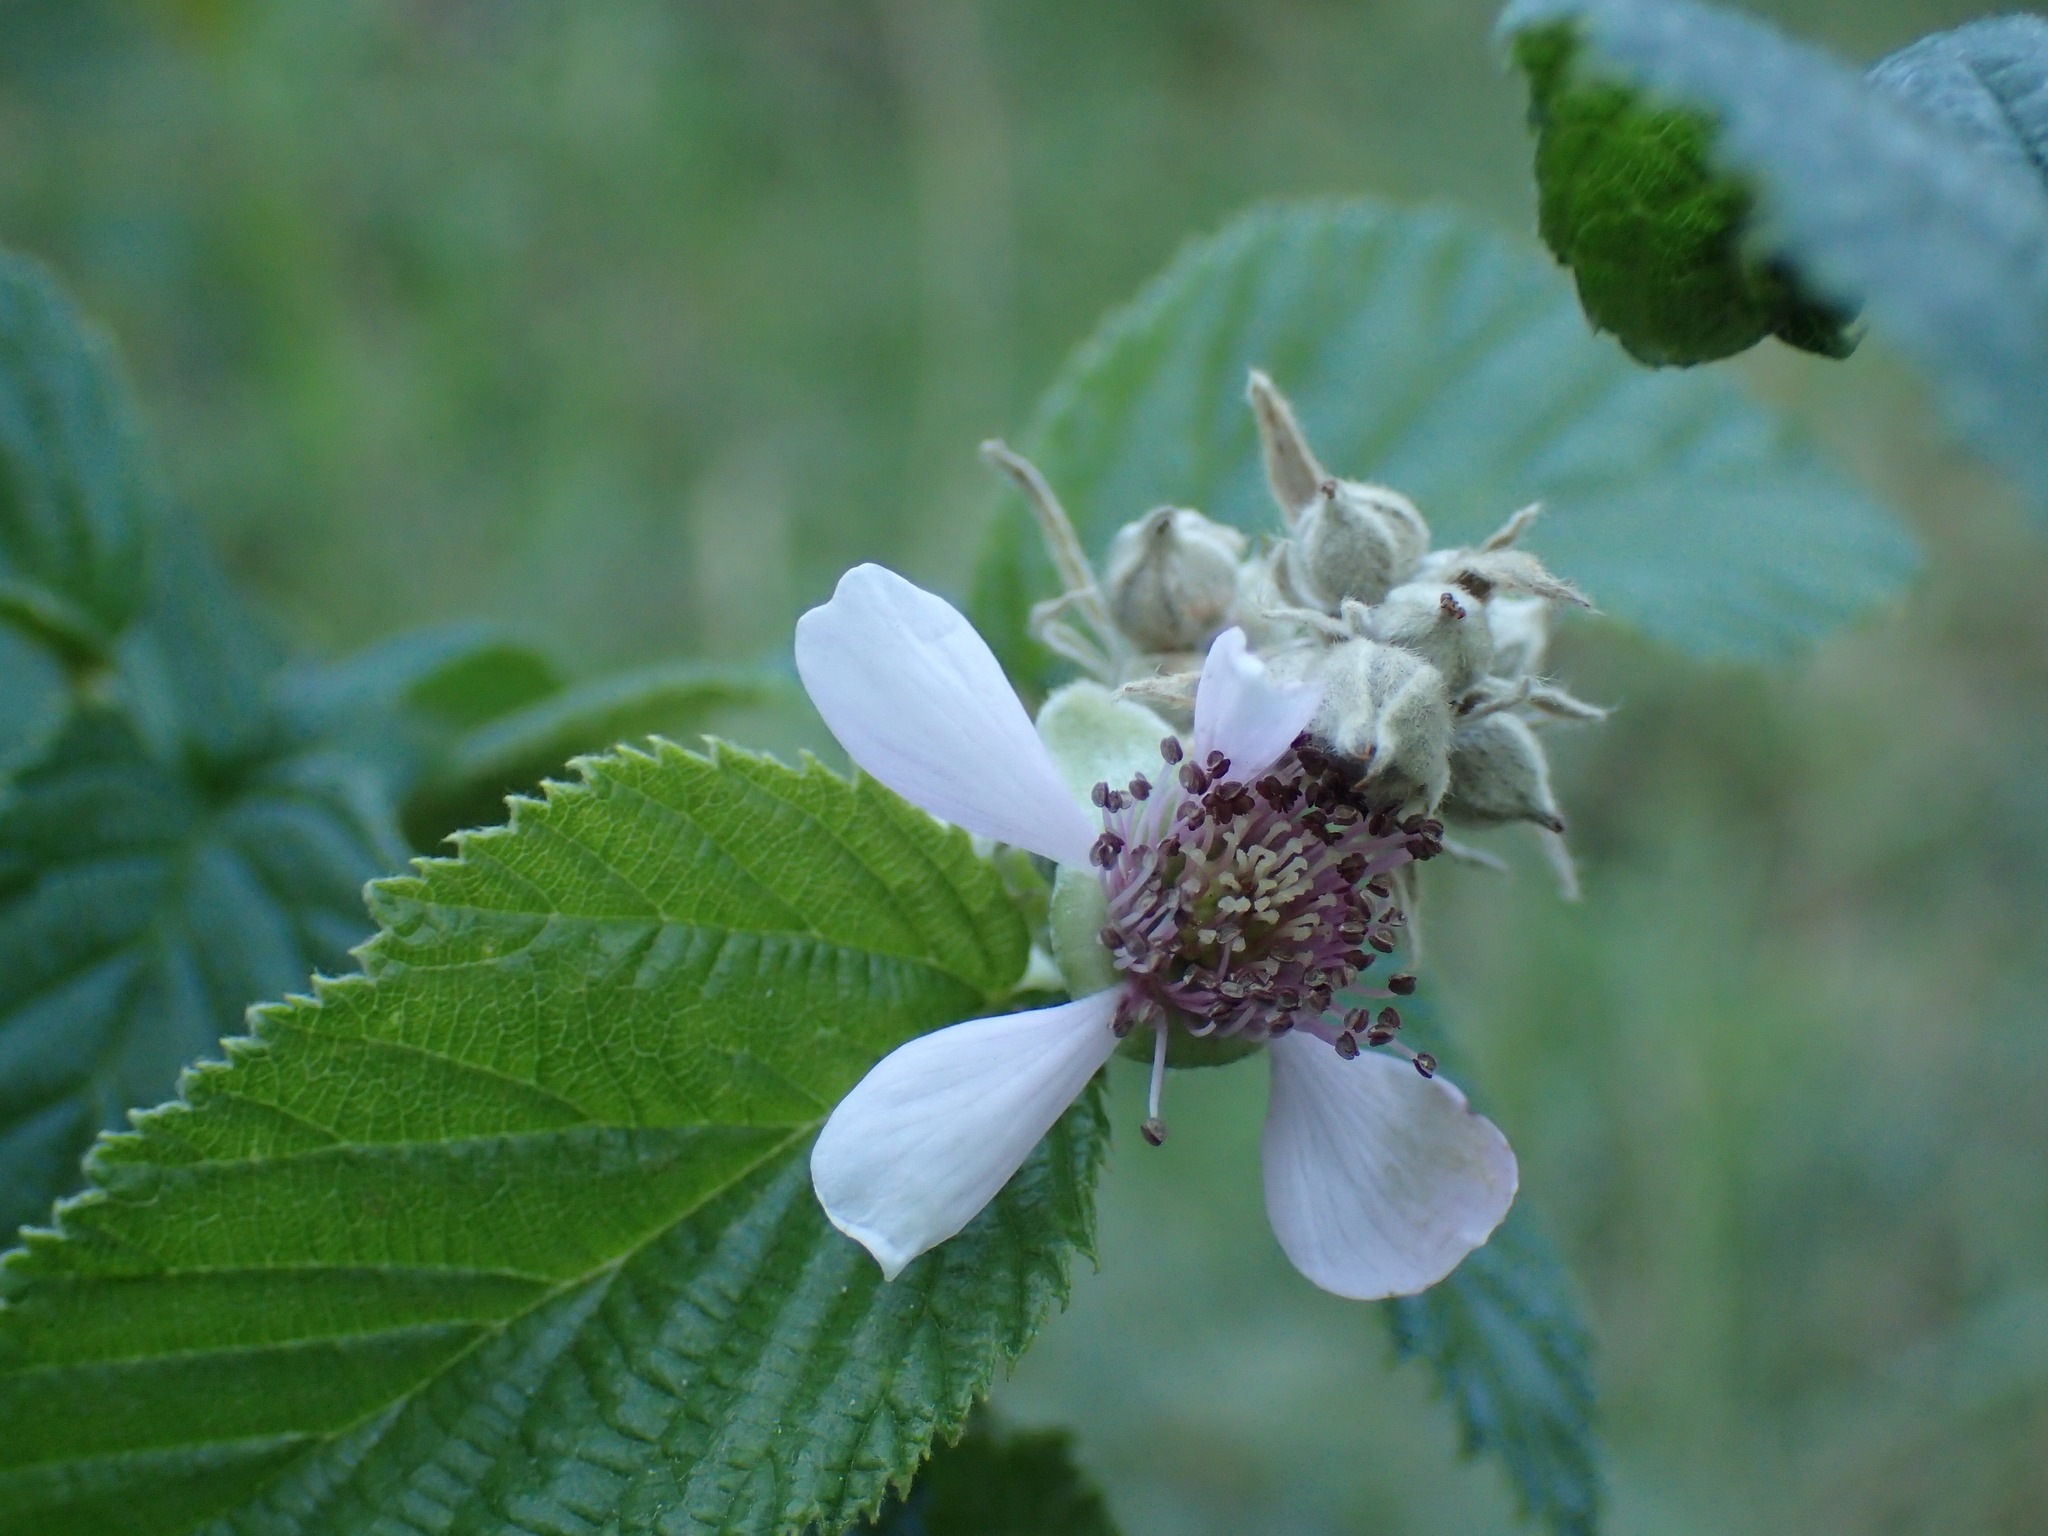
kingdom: Plantae
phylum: Tracheophyta
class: Magnoliopsida
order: Rosales
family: Rosaceae
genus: Rubus
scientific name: Rubus rigidus
